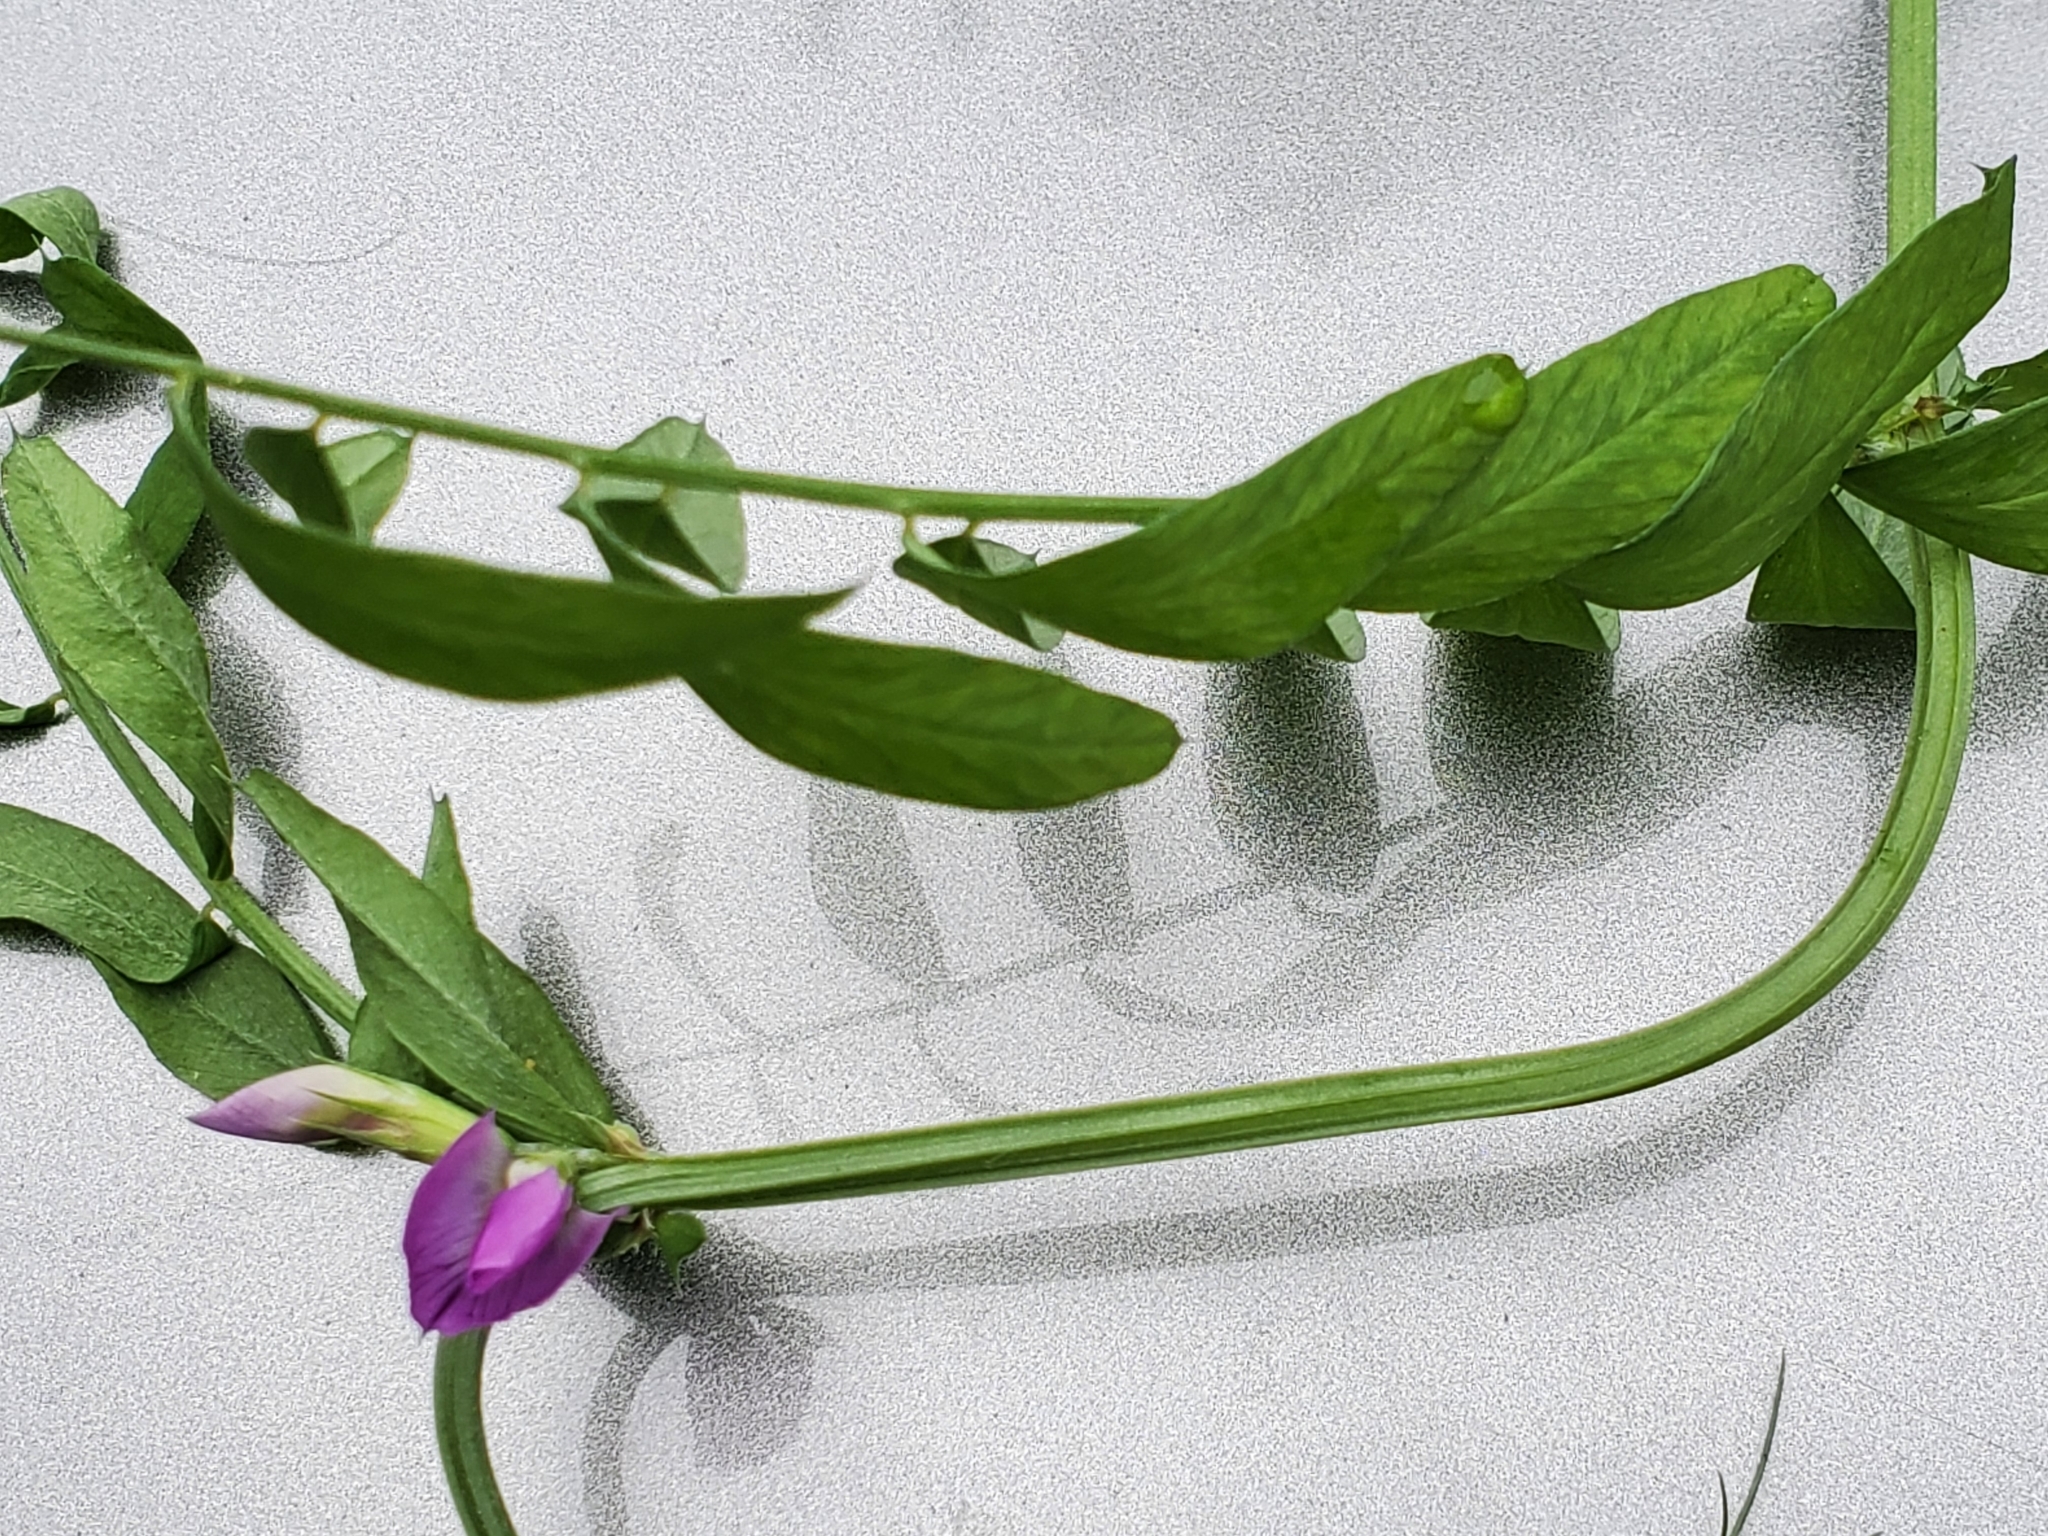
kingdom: Plantae
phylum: Tracheophyta
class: Magnoliopsida
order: Fabales
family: Fabaceae
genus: Vicia
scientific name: Vicia sativa
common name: Garden vetch
